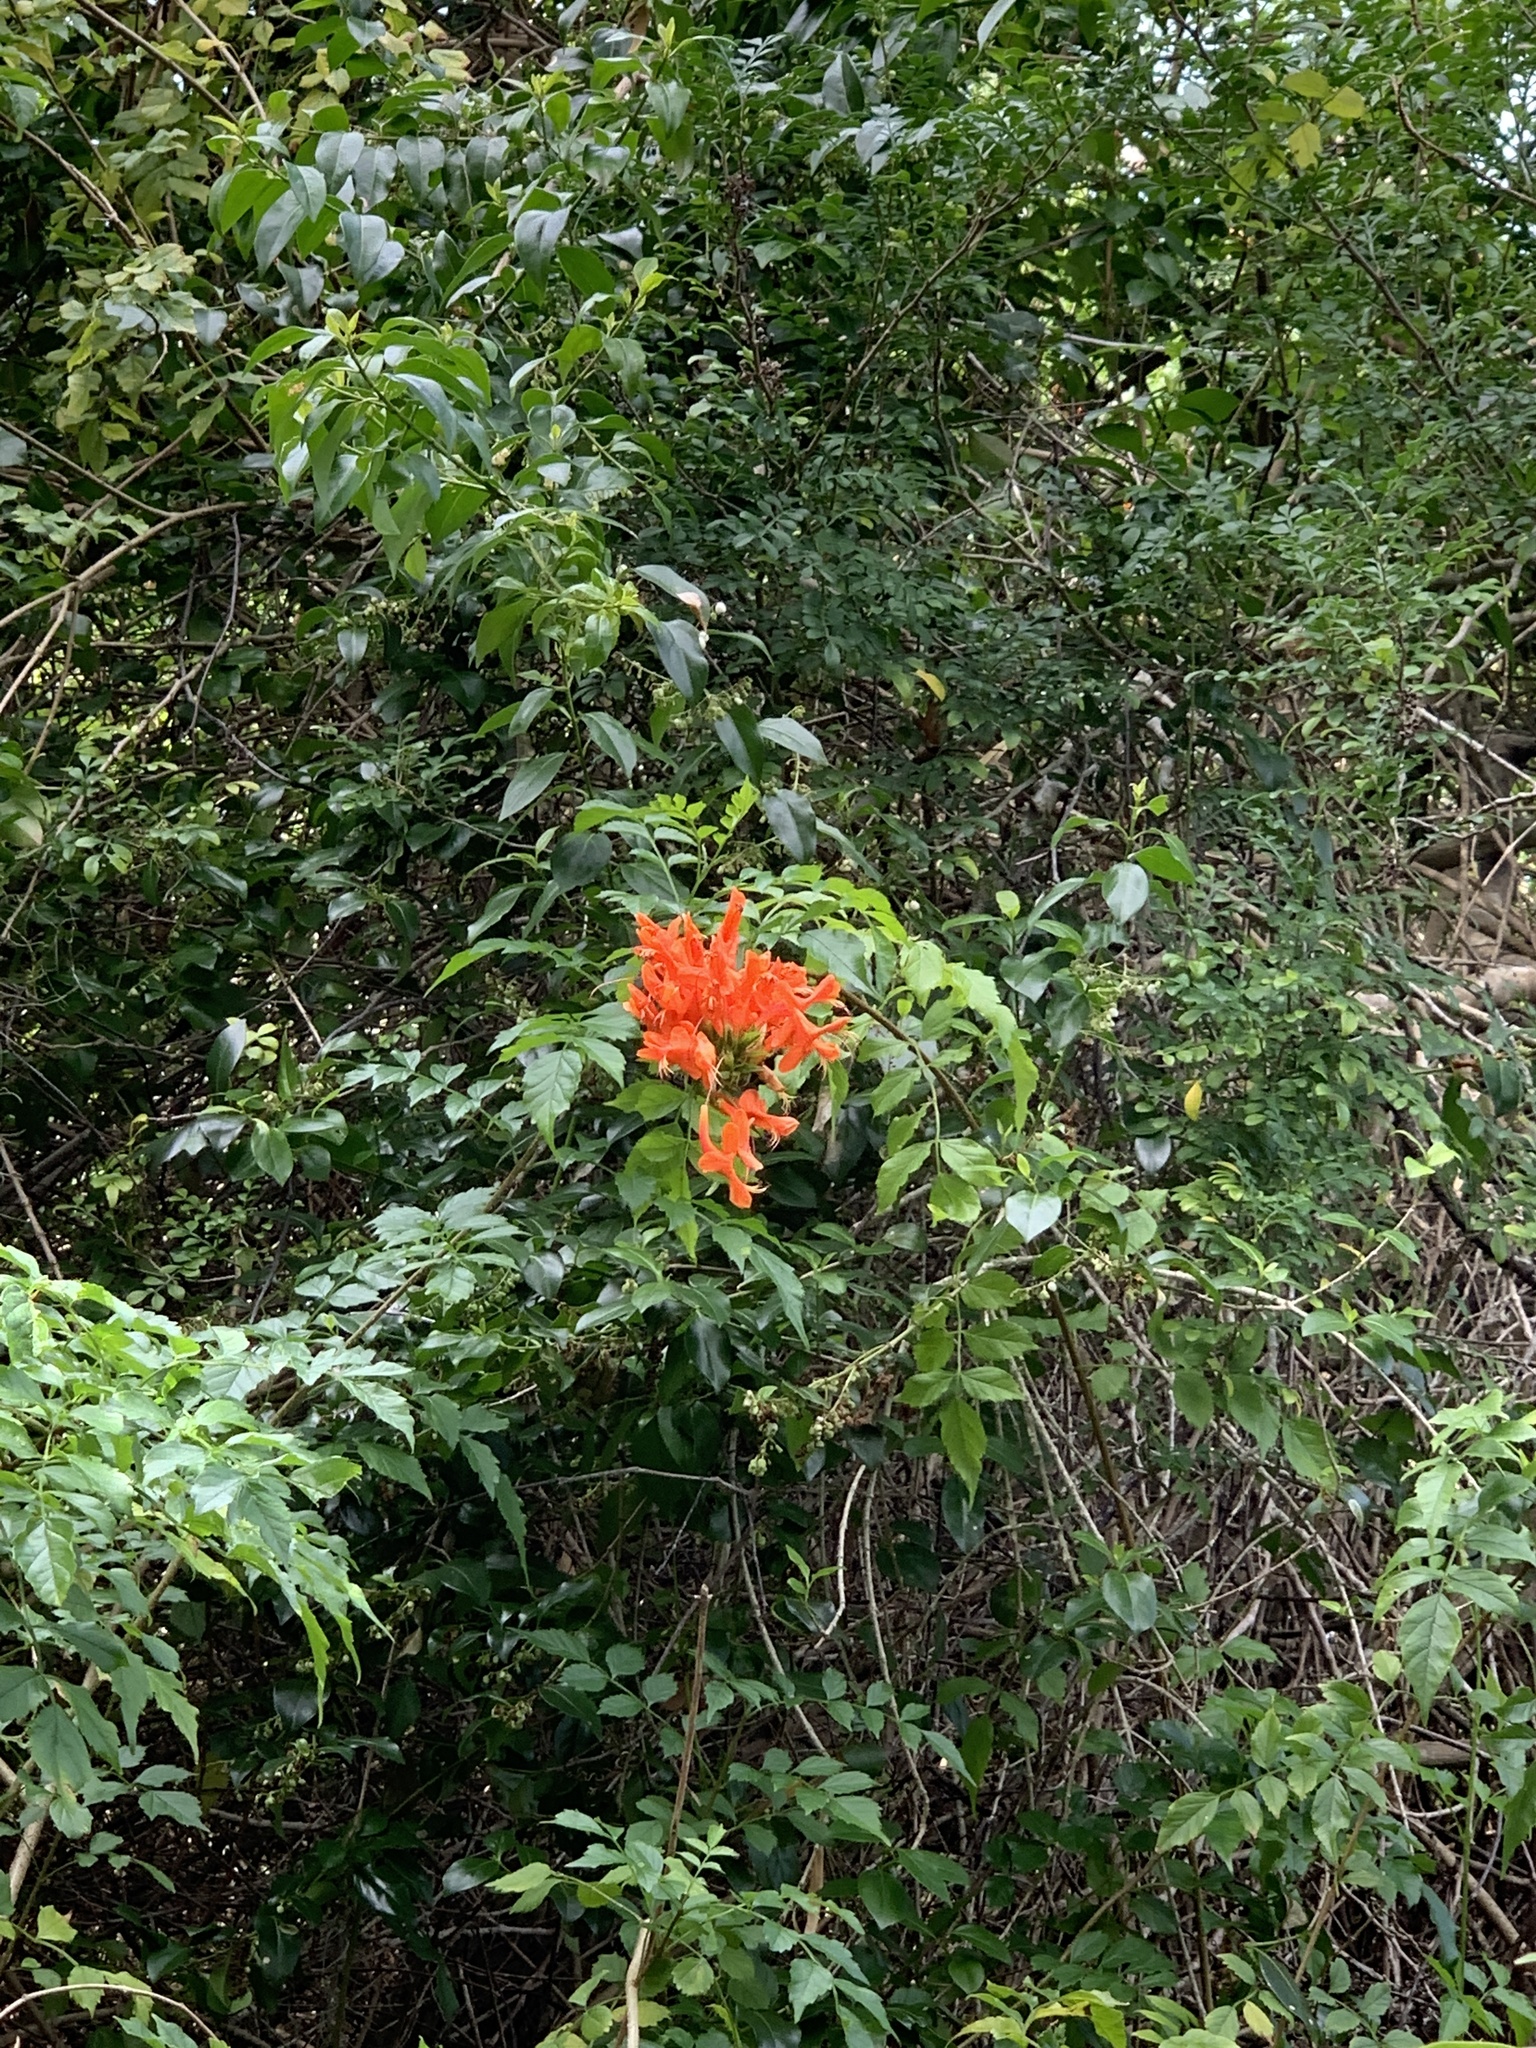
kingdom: Plantae
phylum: Tracheophyta
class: Magnoliopsida
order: Lamiales
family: Bignoniaceae
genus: Tecomaria
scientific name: Tecomaria capensis
